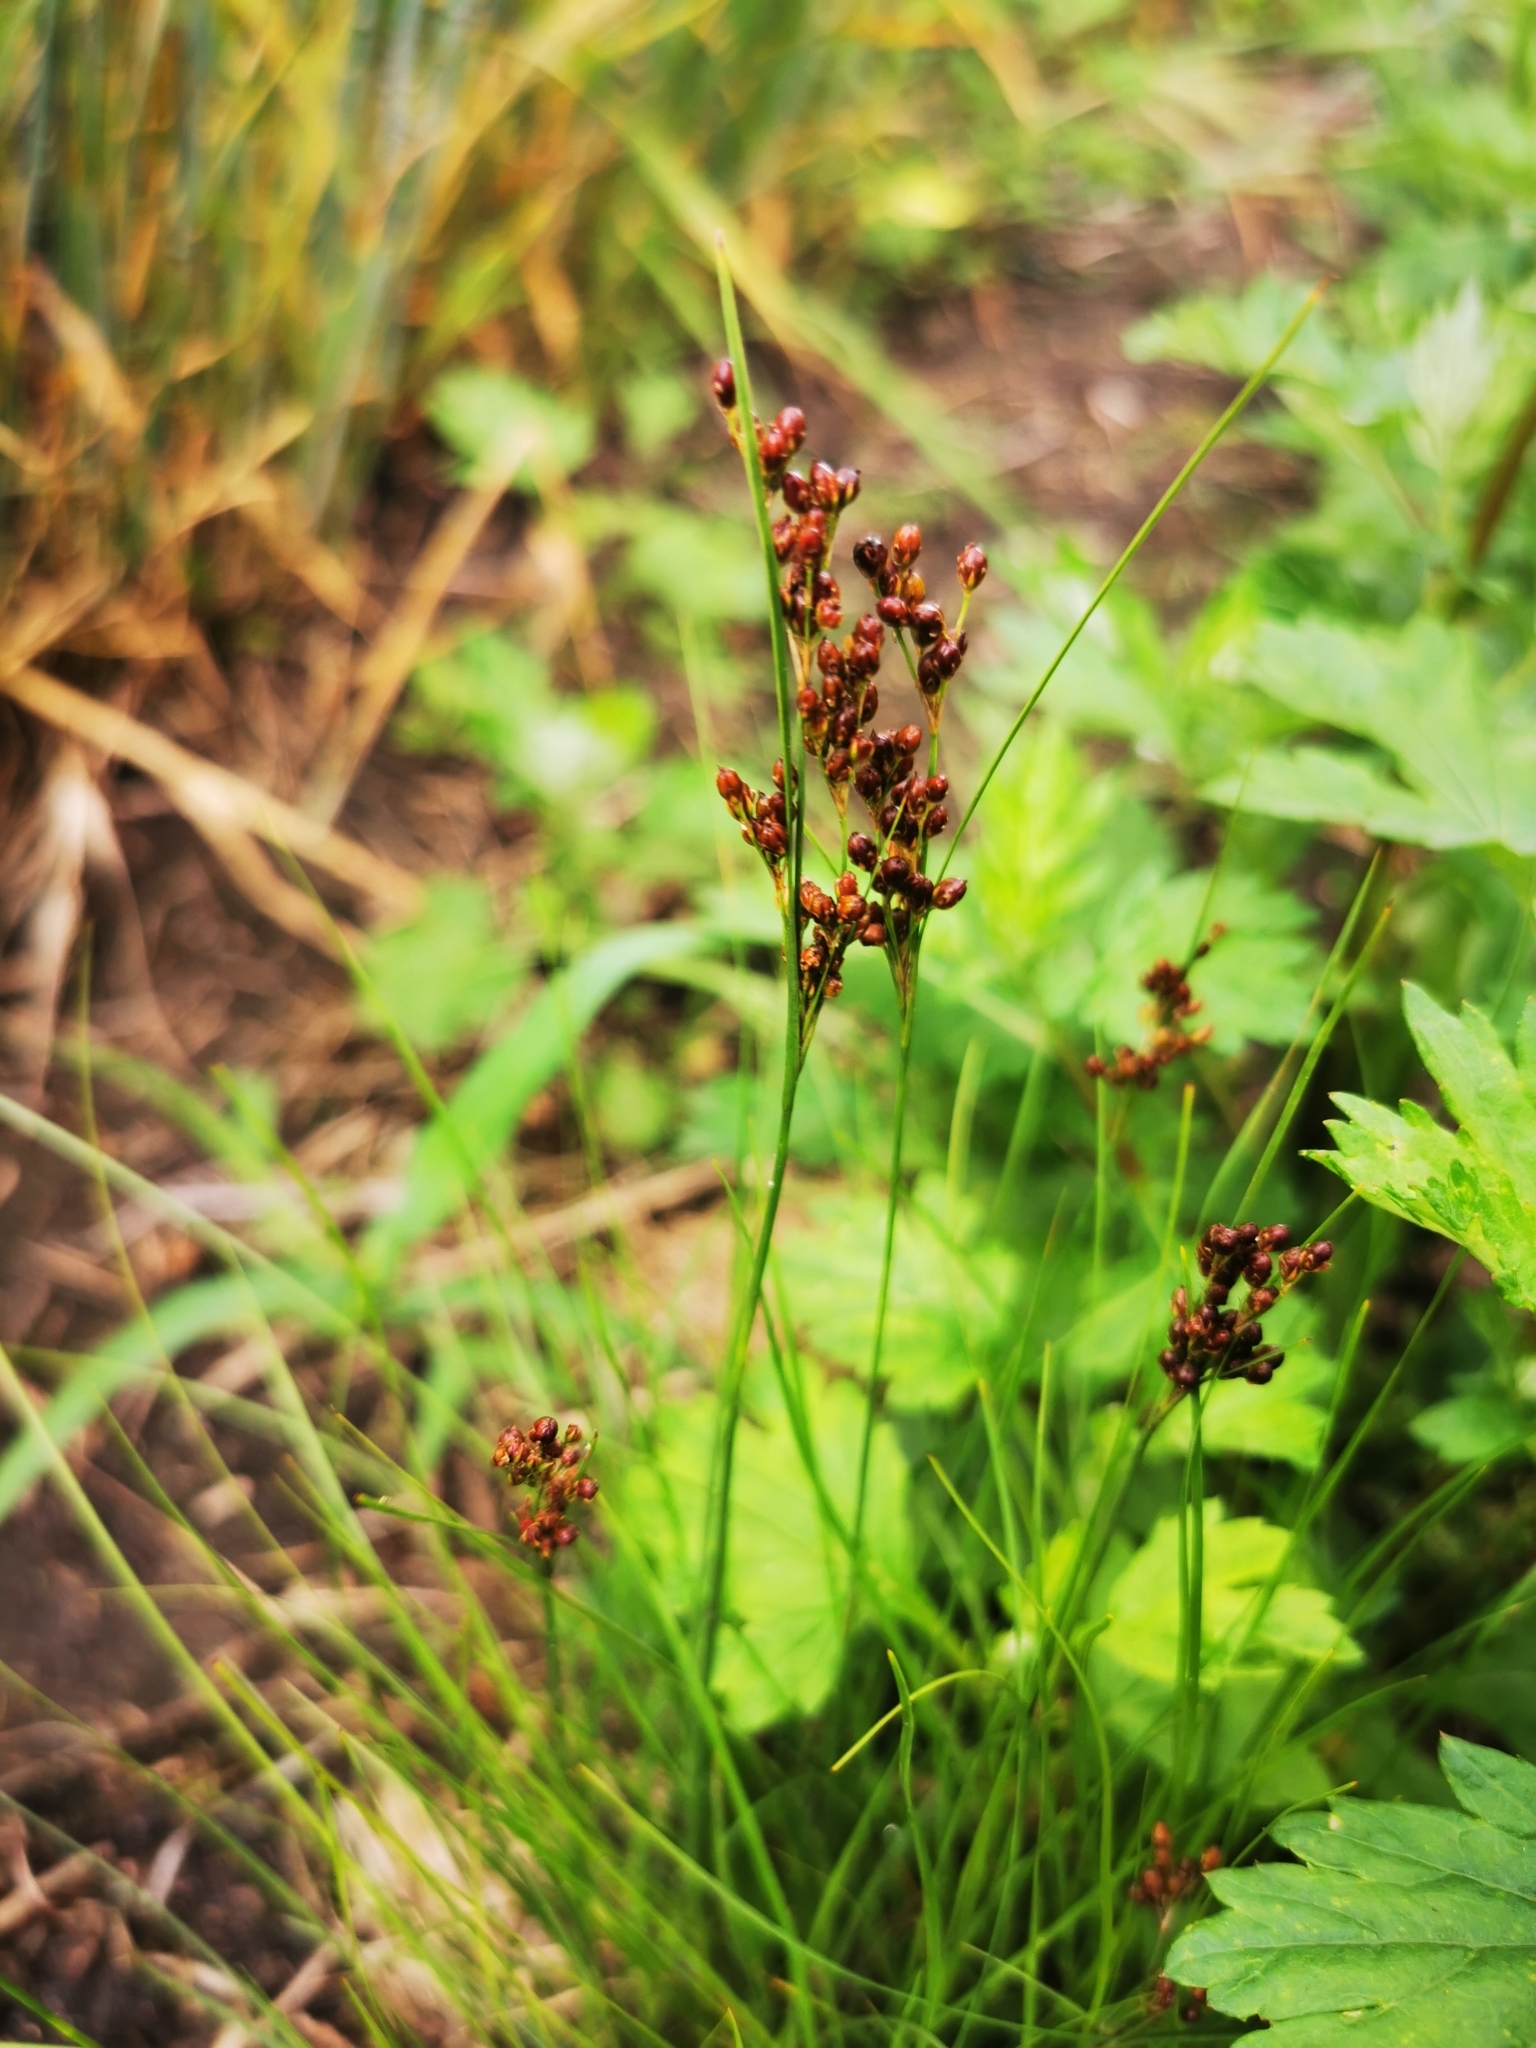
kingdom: Plantae
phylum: Tracheophyta
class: Liliopsida
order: Poales
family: Juncaceae
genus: Juncus
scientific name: Juncus compressus
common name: Round-fruited rush
